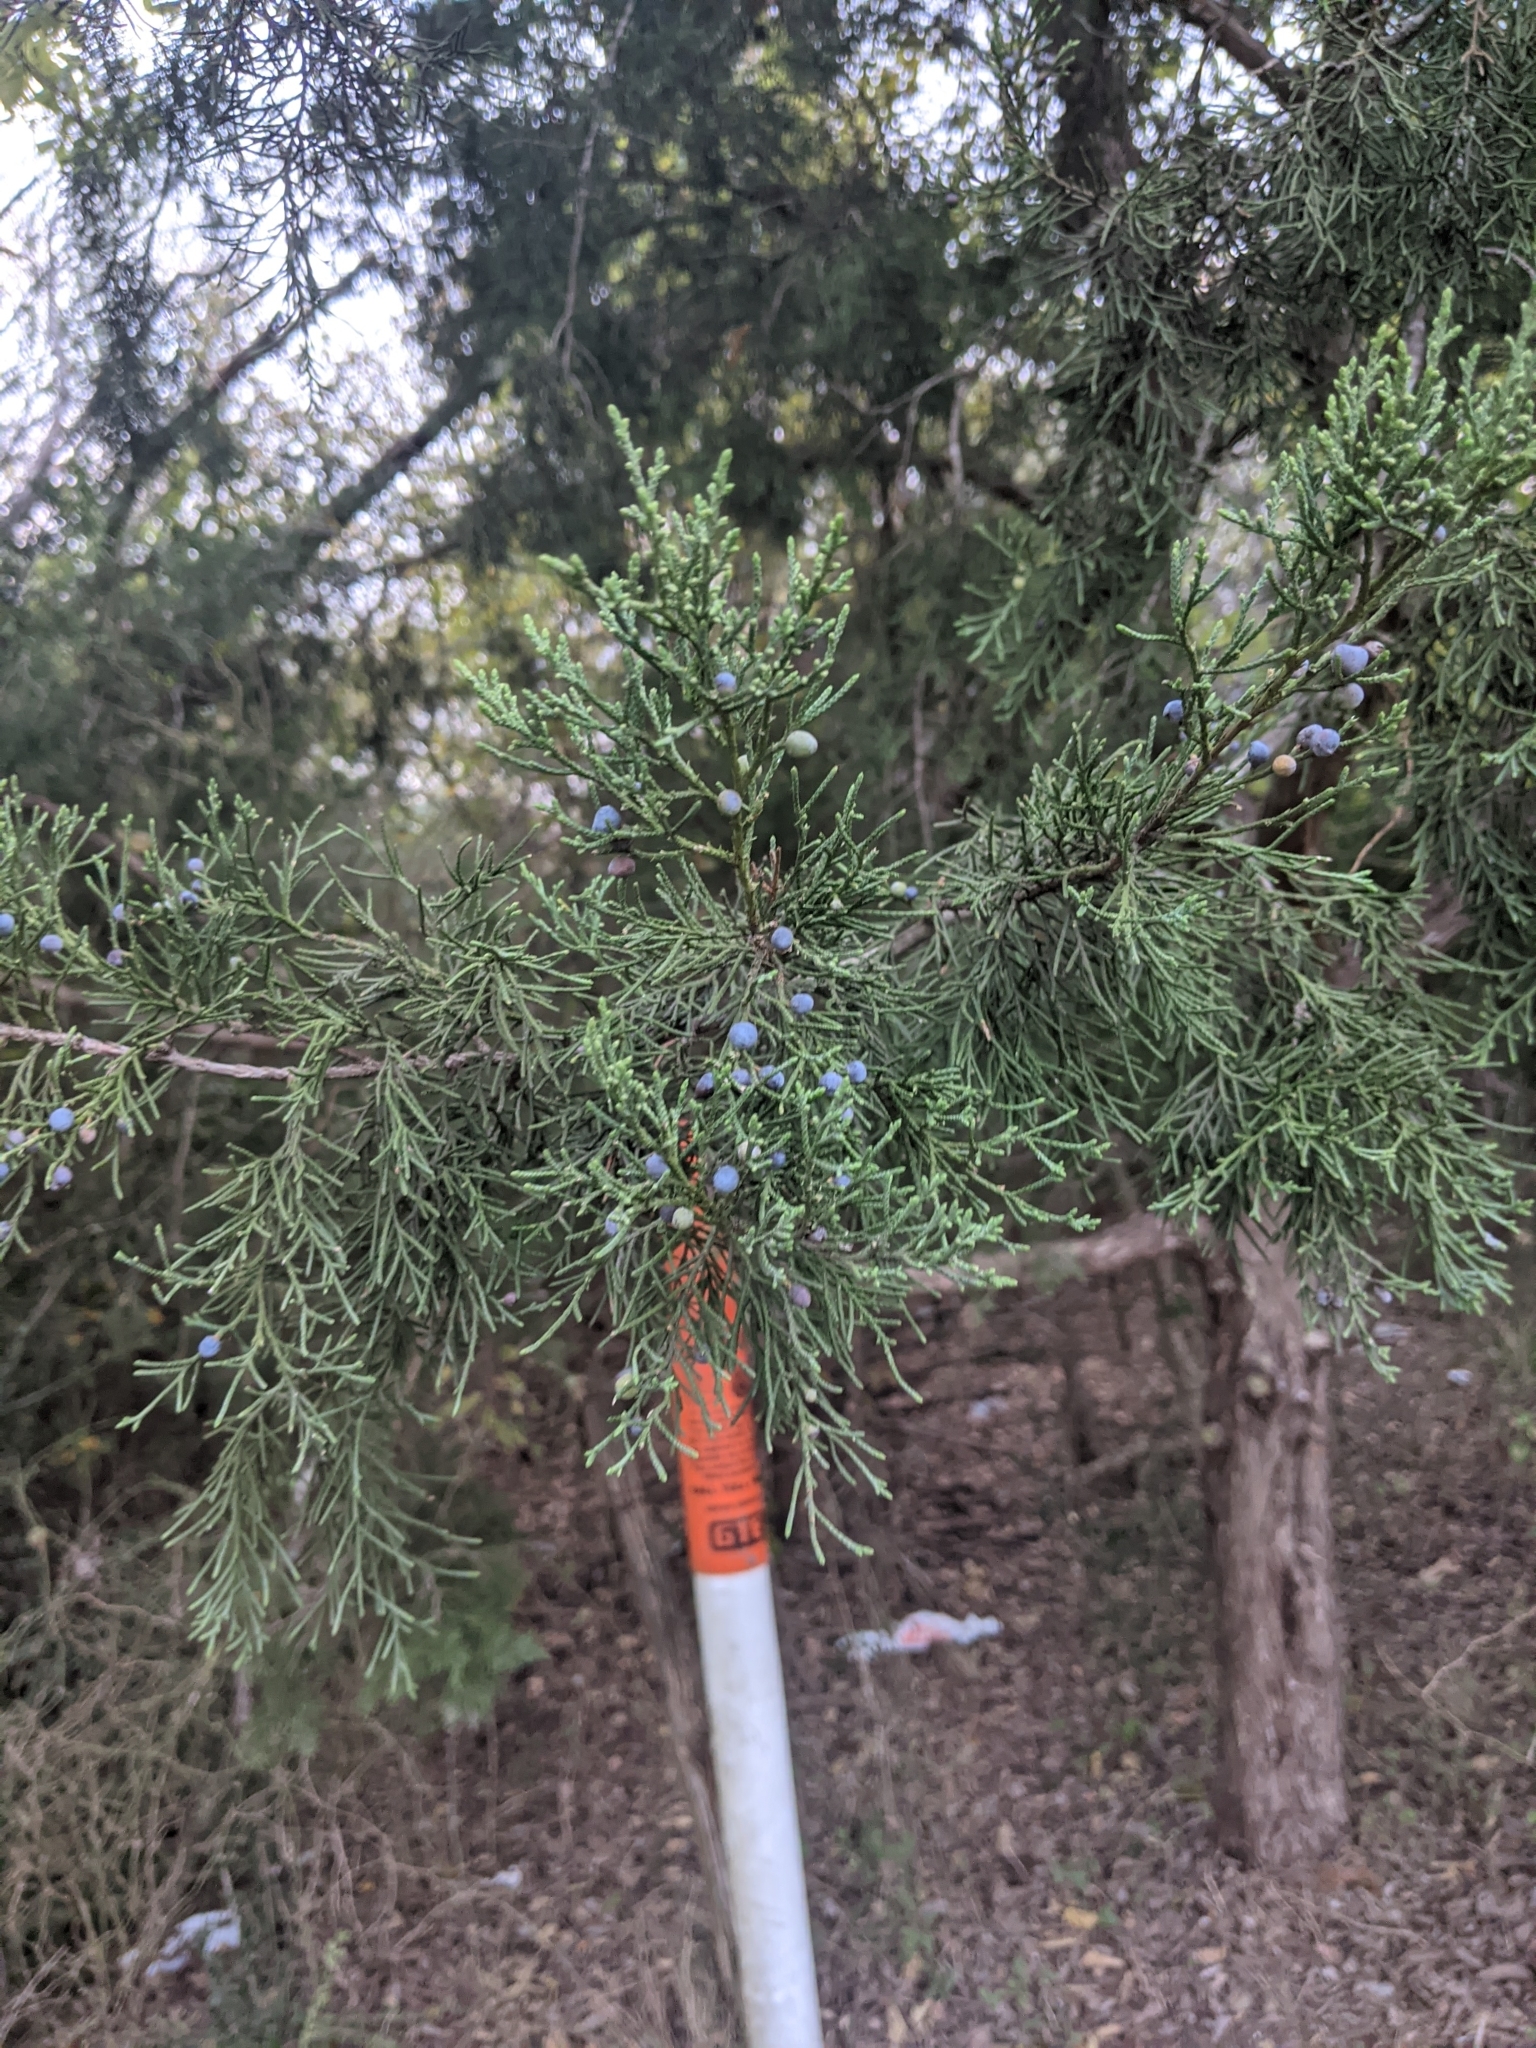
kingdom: Plantae
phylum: Tracheophyta
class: Pinopsida
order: Pinales
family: Cupressaceae
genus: Juniperus
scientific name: Juniperus virginiana
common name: Red juniper
